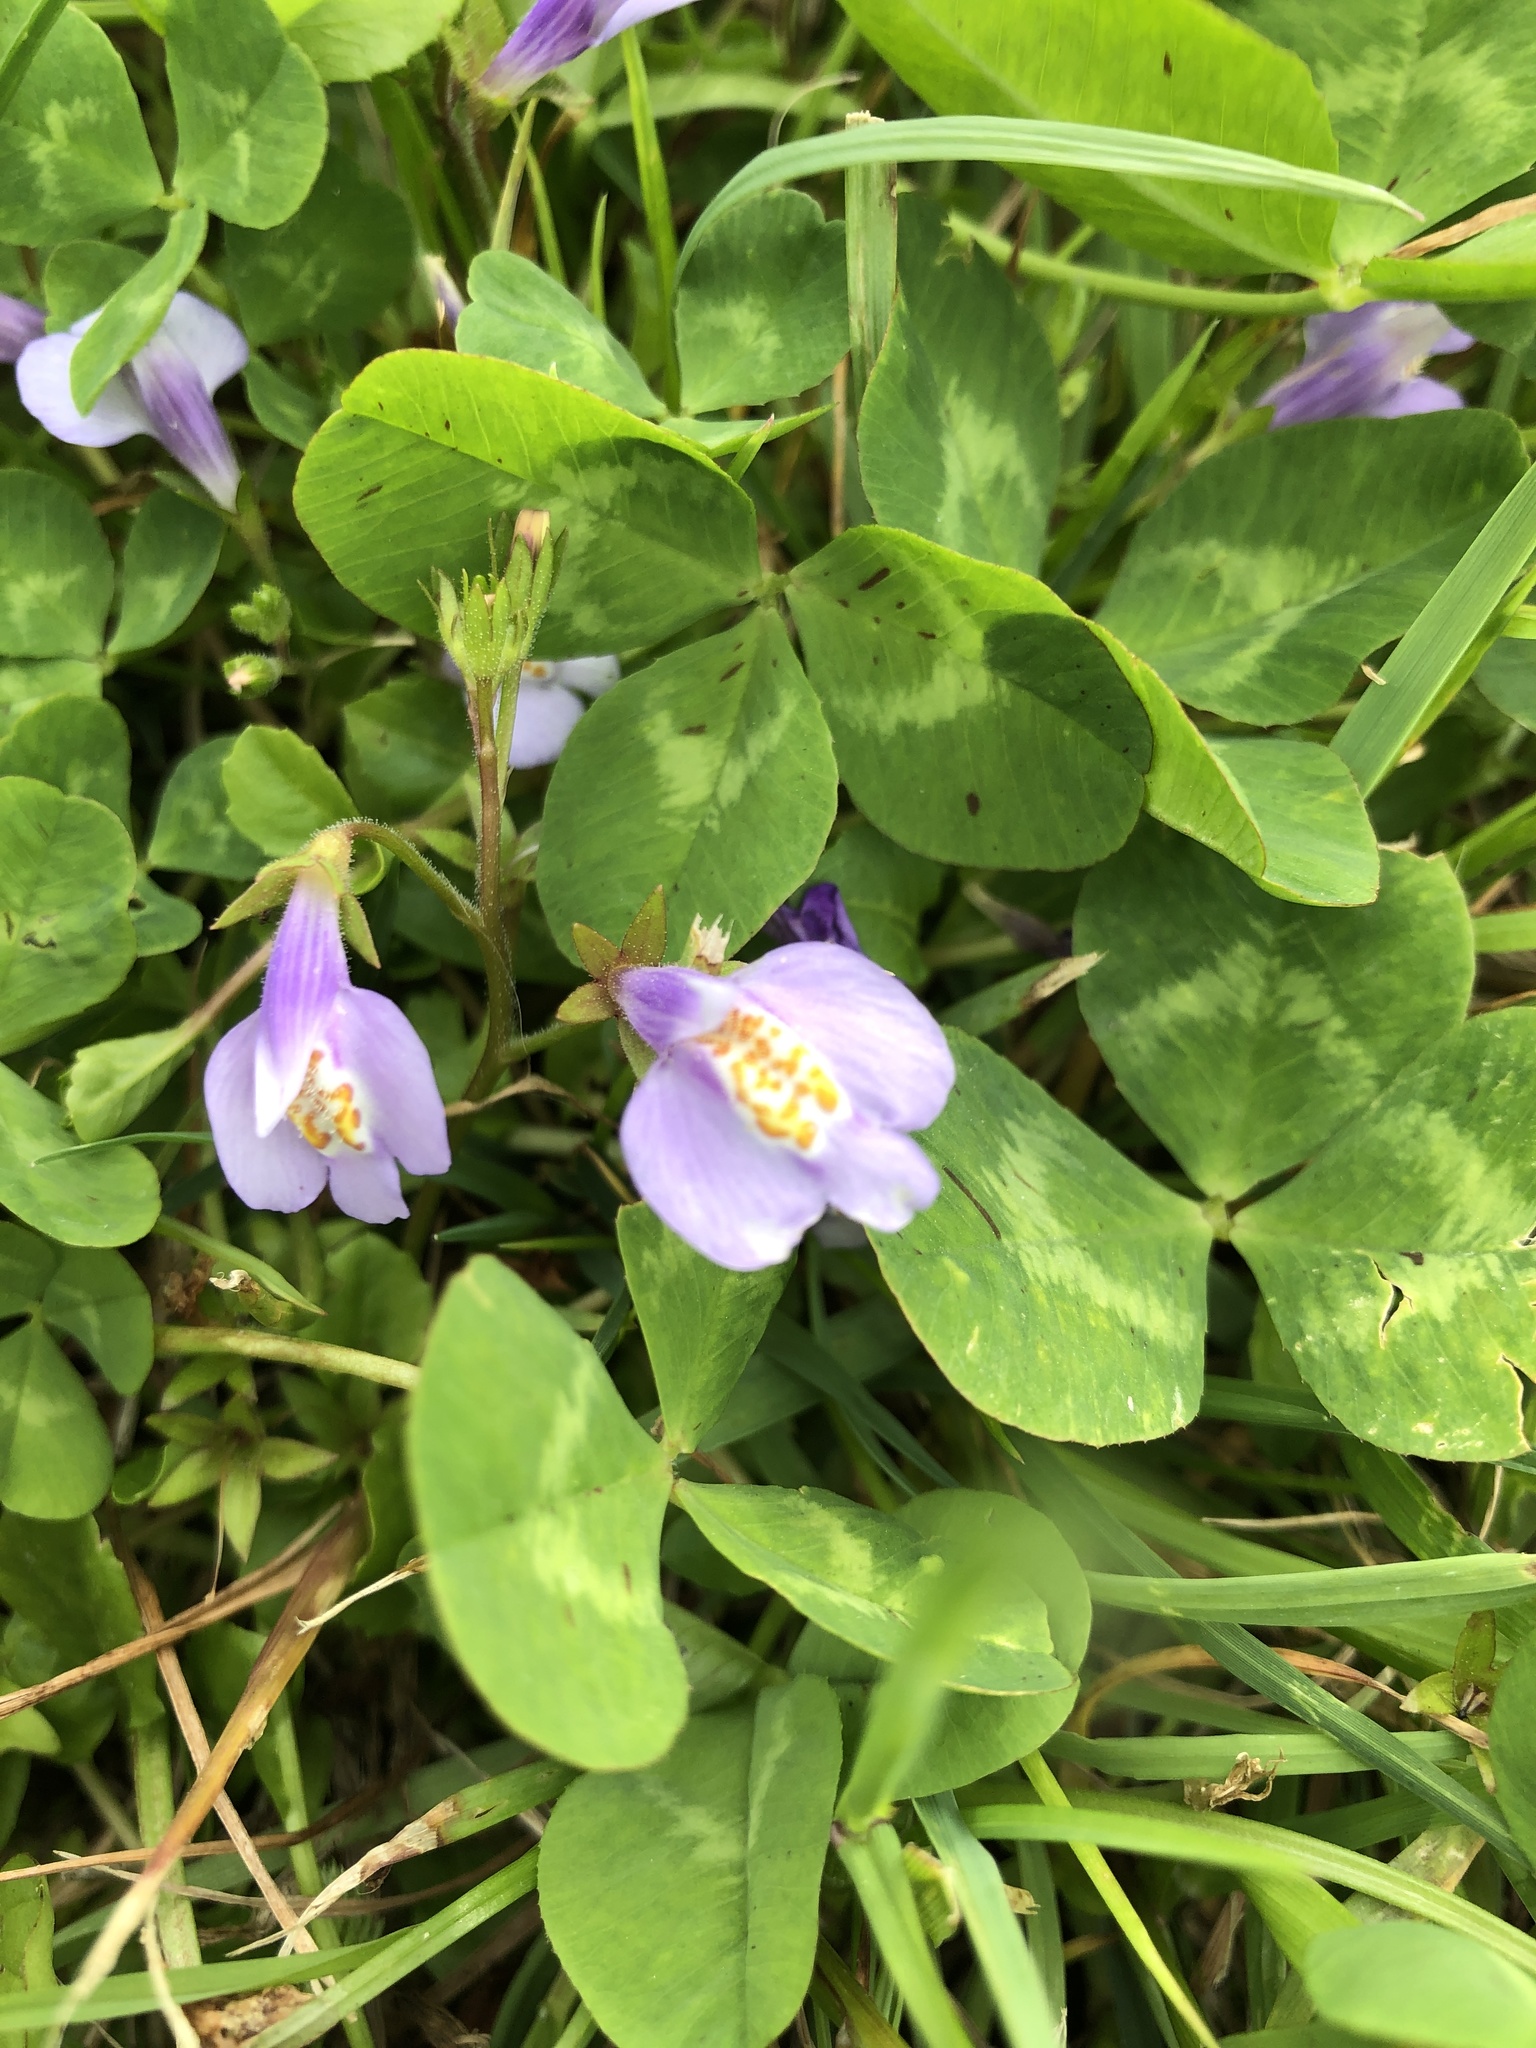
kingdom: Plantae
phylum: Tracheophyta
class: Magnoliopsida
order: Lamiales
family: Mazaceae
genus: Mazus
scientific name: Mazus miquelii
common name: Miquel's mazus
